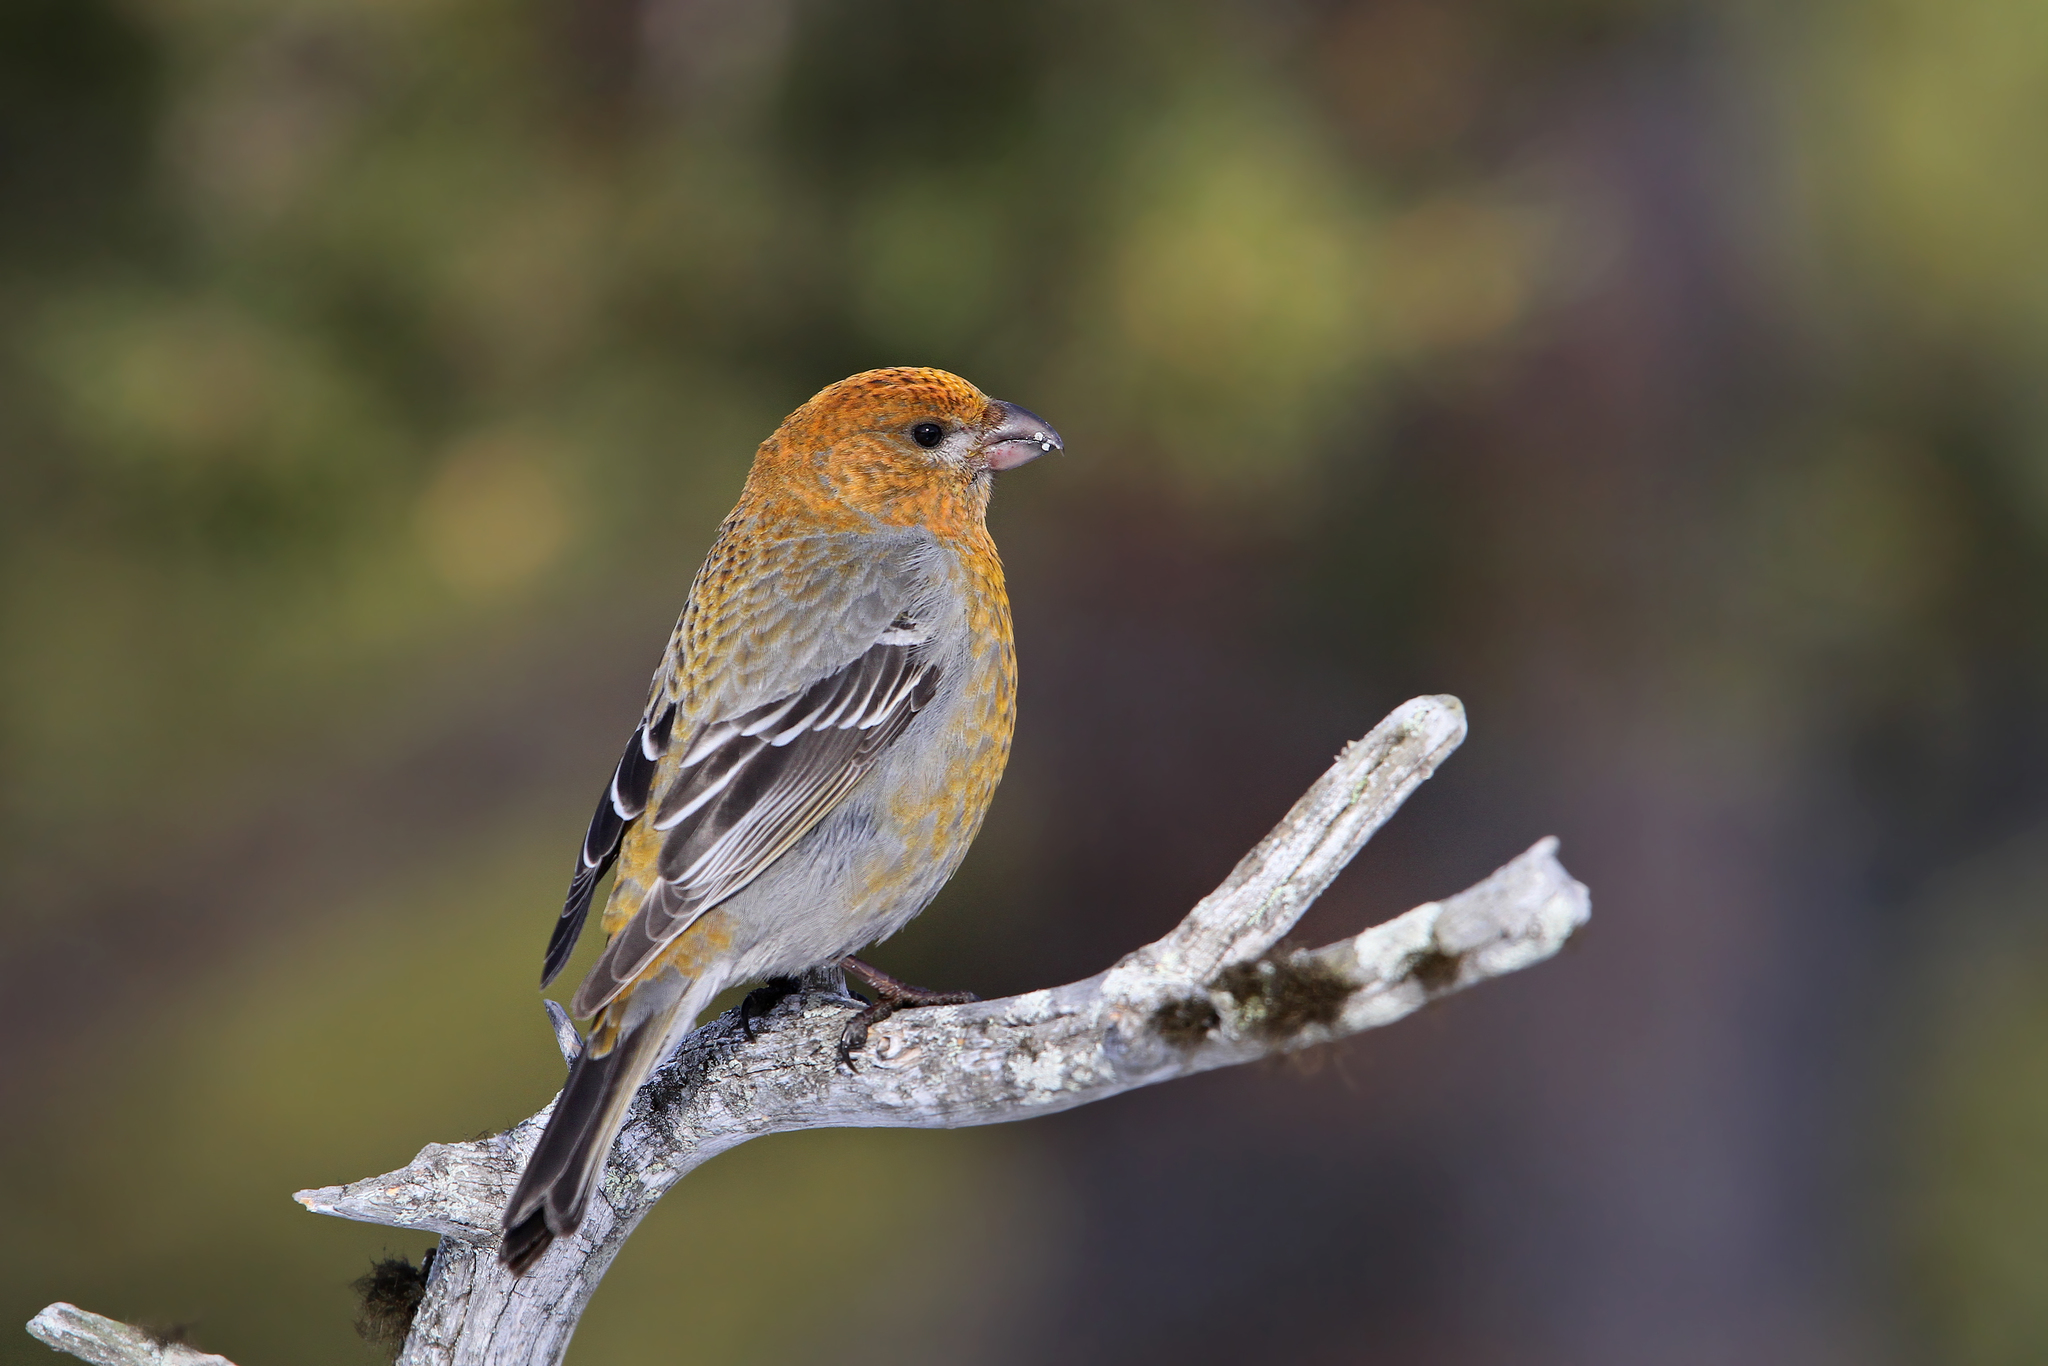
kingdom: Animalia
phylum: Chordata
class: Aves
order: Passeriformes
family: Fringillidae
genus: Pinicola
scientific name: Pinicola enucleator
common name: Pine grosbeak
